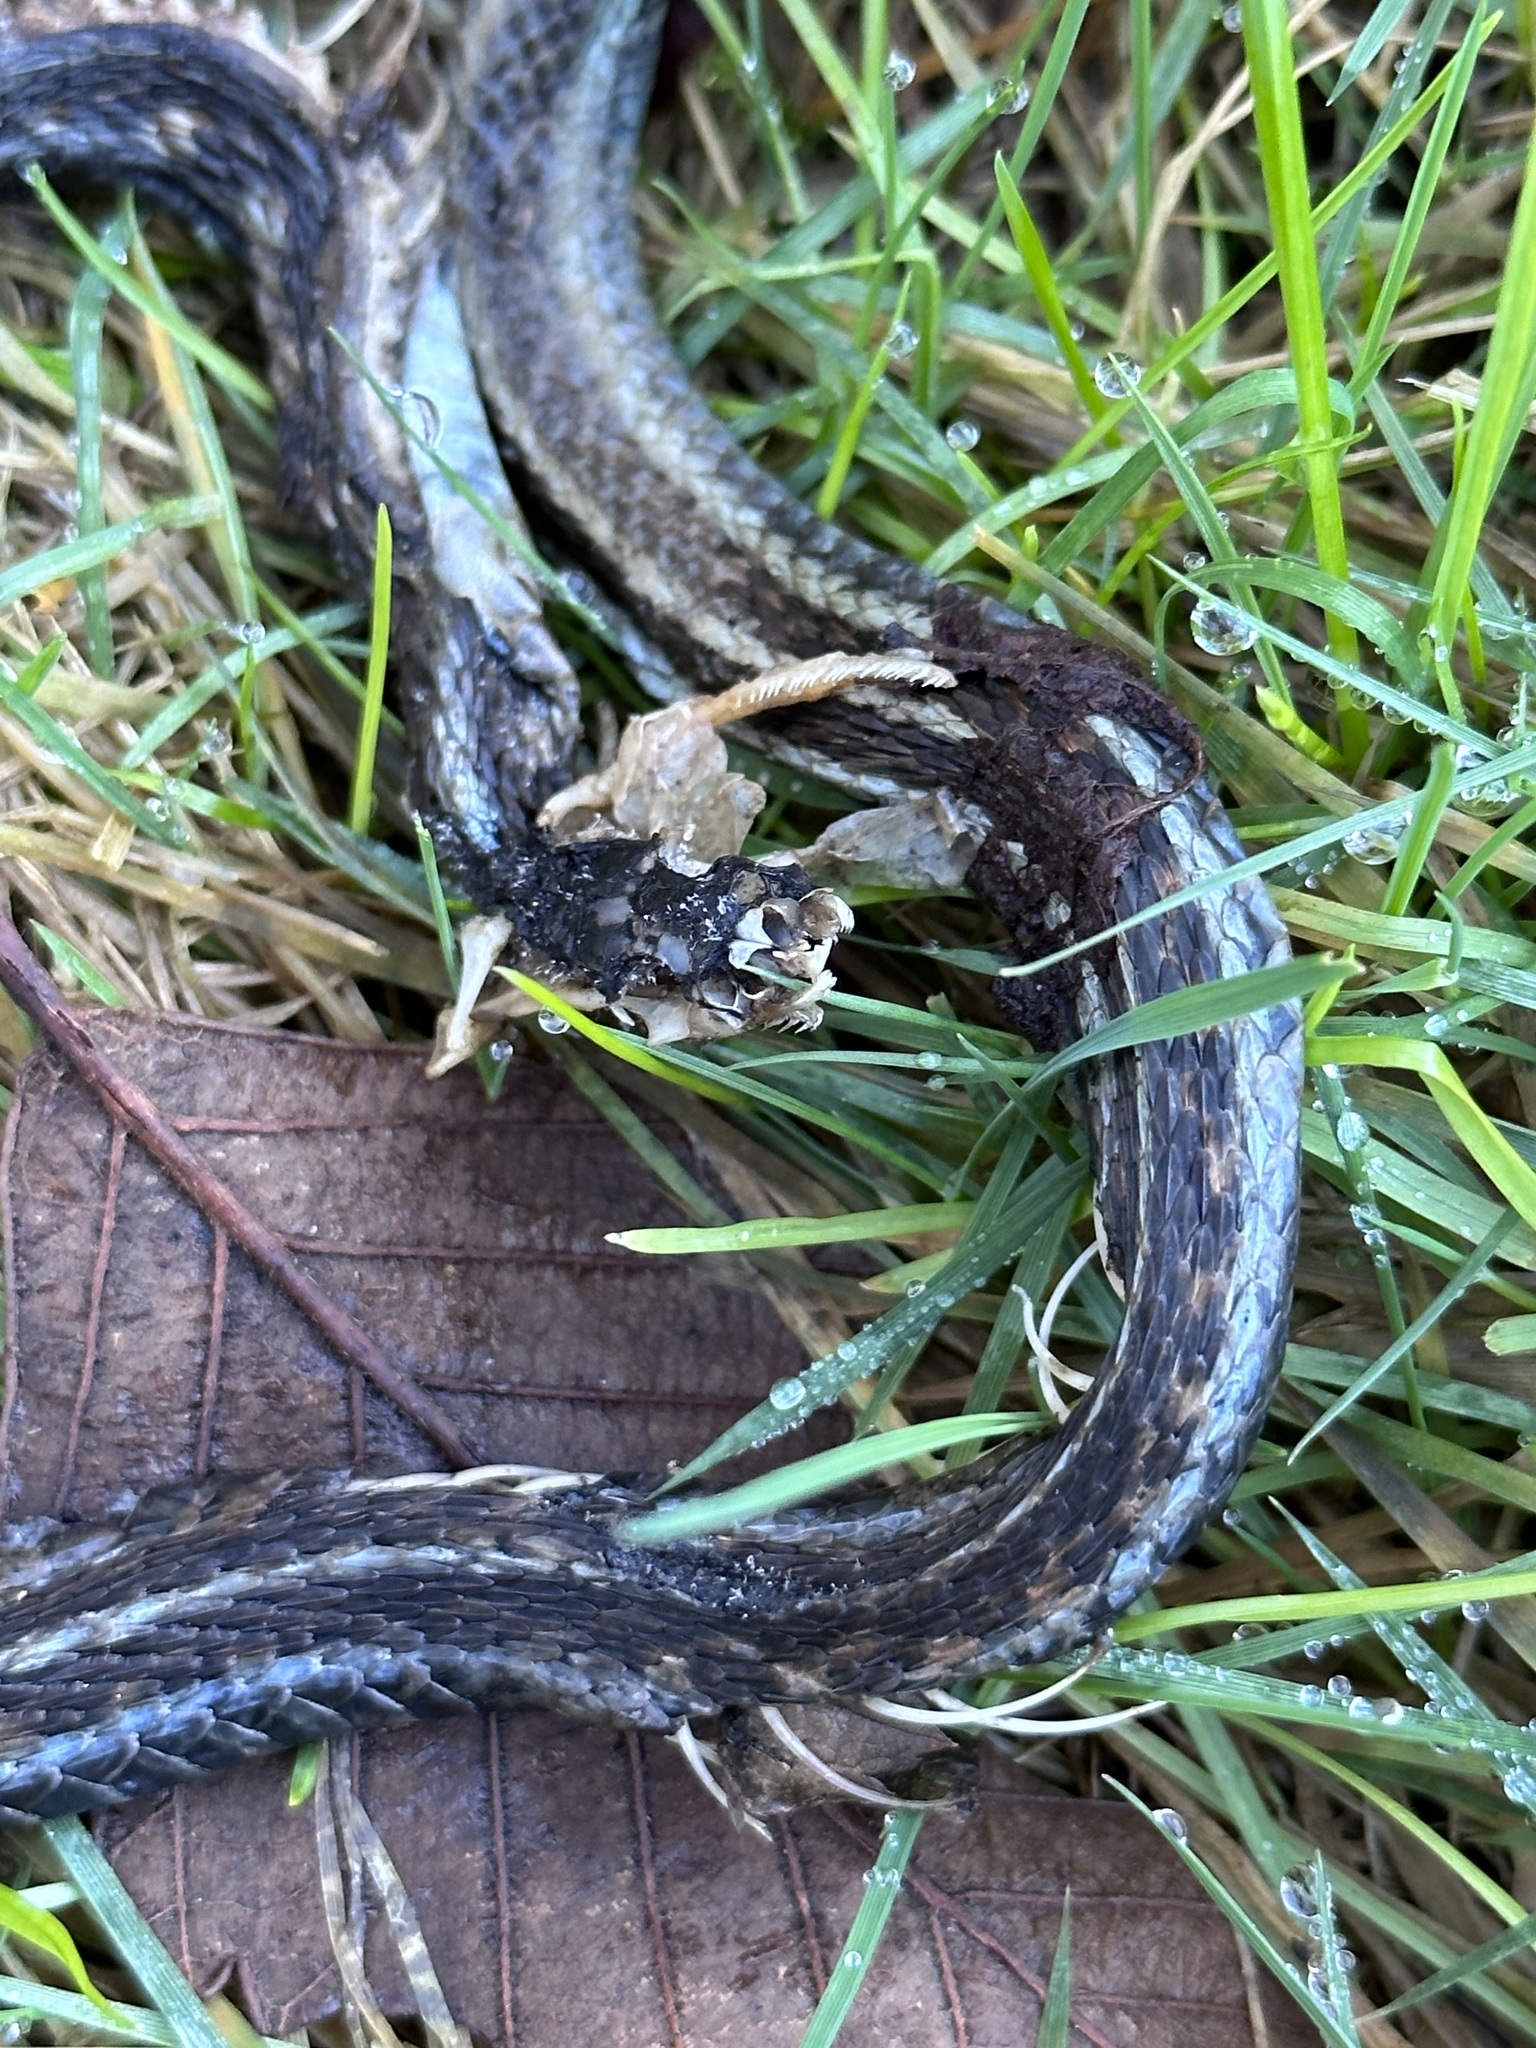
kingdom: Animalia
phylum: Chordata
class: Squamata
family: Colubridae
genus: Thamnophis
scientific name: Thamnophis sirtalis
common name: Common garter snake
